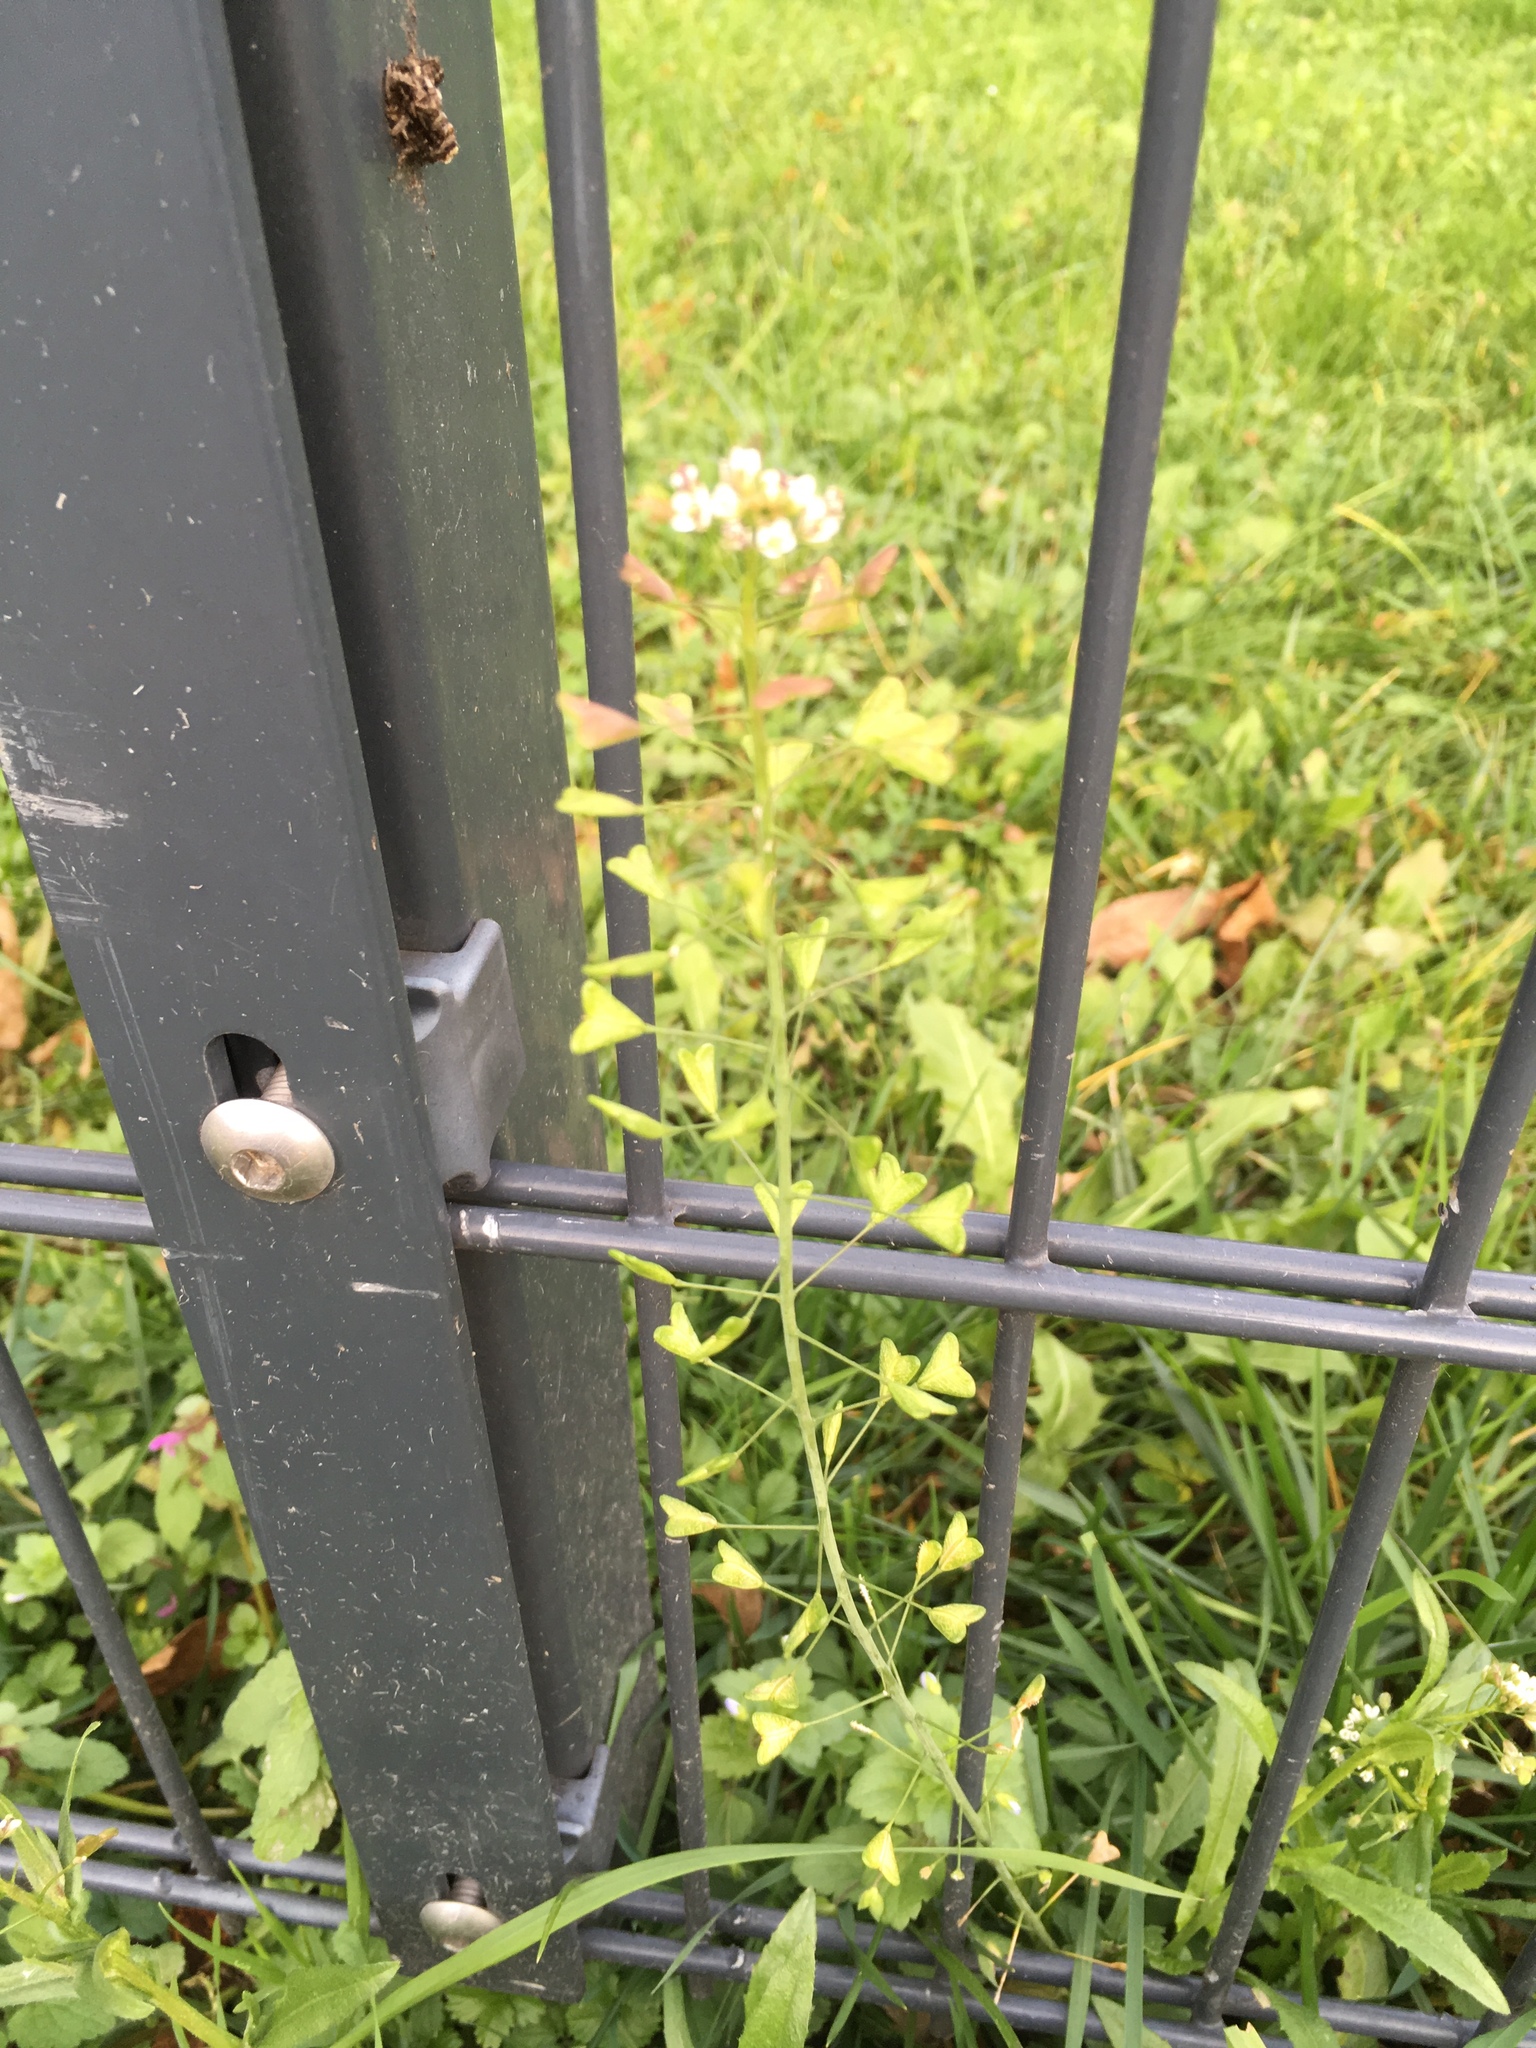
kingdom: Plantae
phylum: Tracheophyta
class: Magnoliopsida
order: Brassicales
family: Brassicaceae
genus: Capsella
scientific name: Capsella bursa-pastoris
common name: Shepherd's purse
